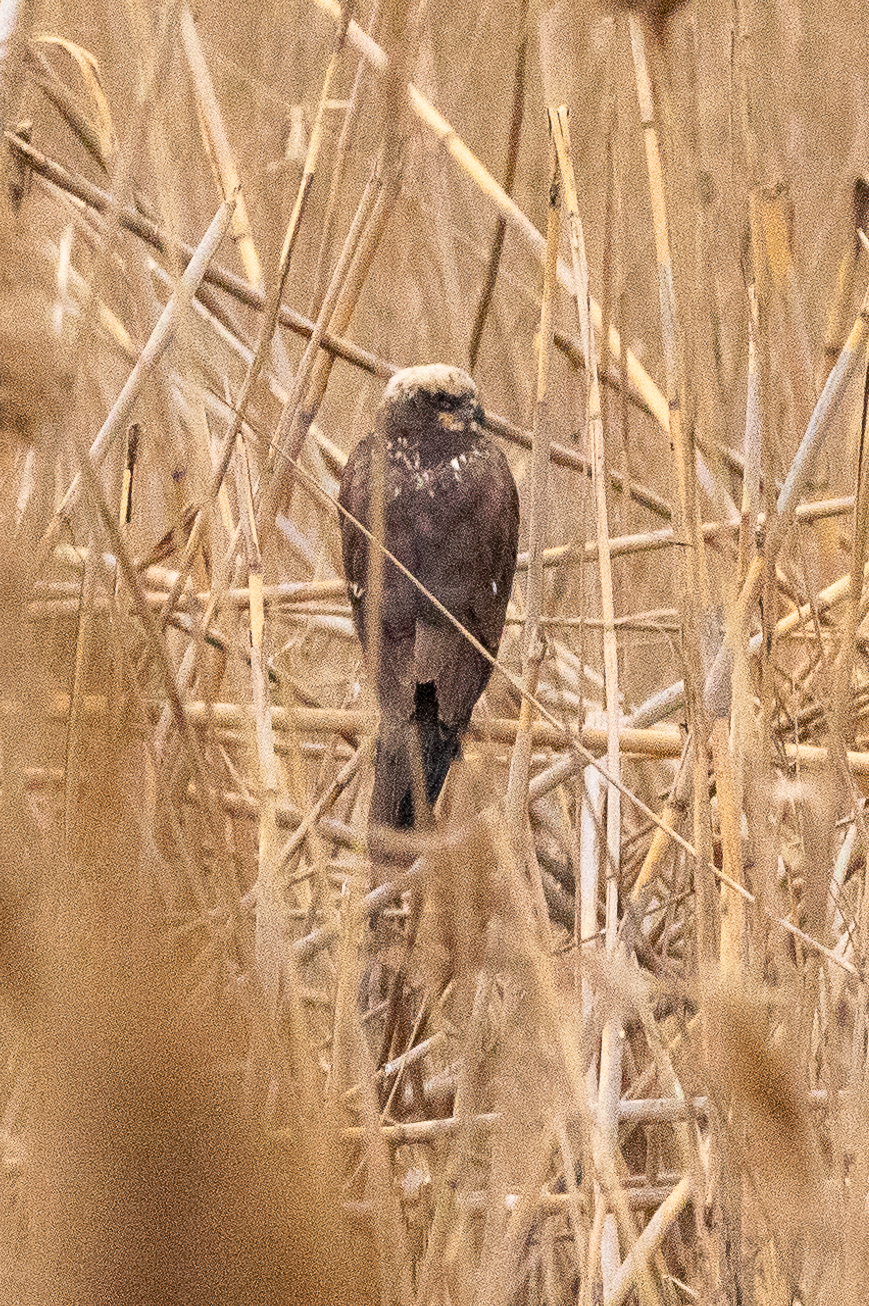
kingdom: Animalia
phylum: Chordata
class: Aves
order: Accipitriformes
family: Accipitridae
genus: Circus
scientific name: Circus aeruginosus
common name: Western marsh harrier
